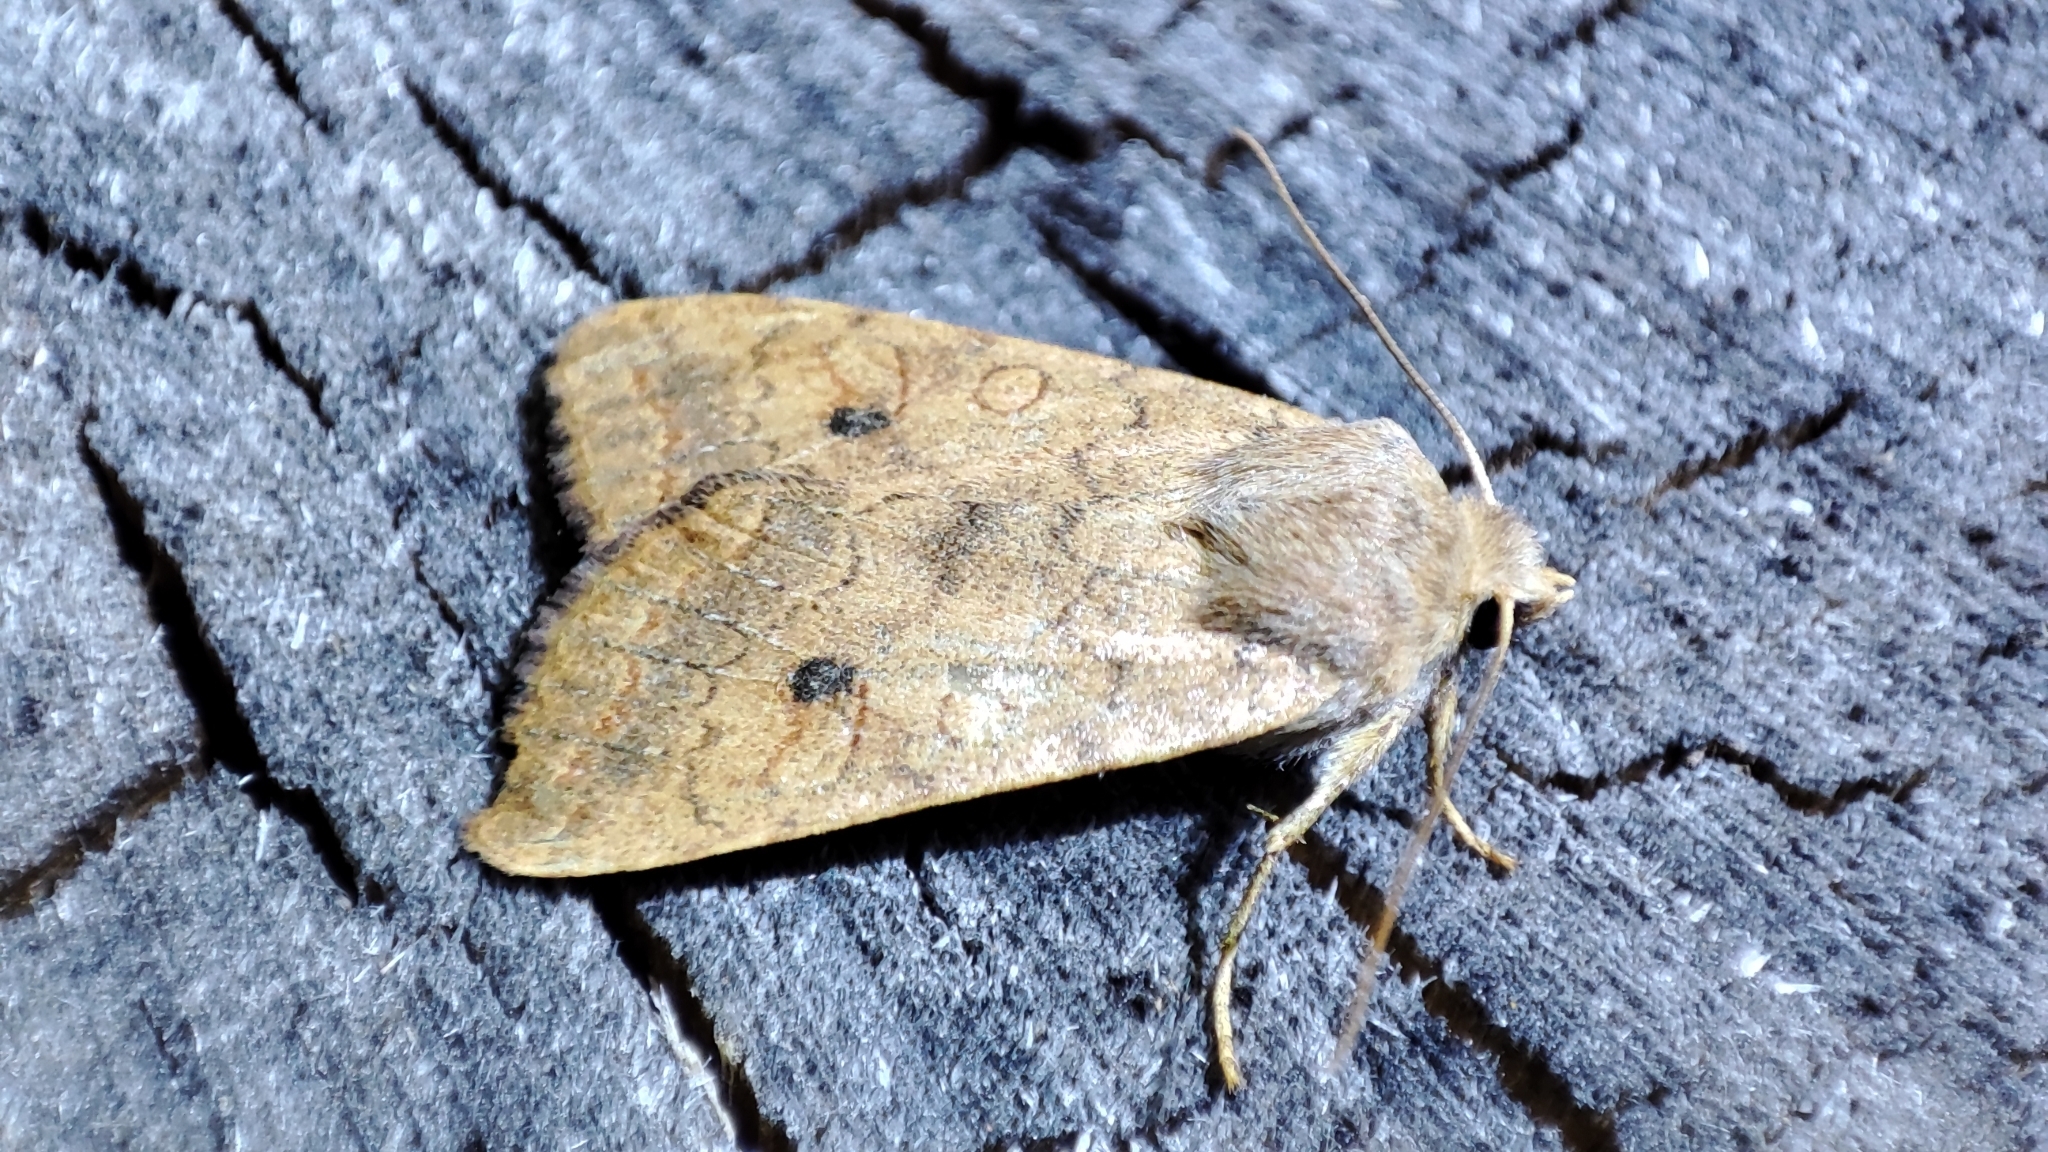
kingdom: Animalia
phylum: Arthropoda
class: Insecta
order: Lepidoptera
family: Noctuidae
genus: Sunira
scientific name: Sunira circellaris
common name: Brick
